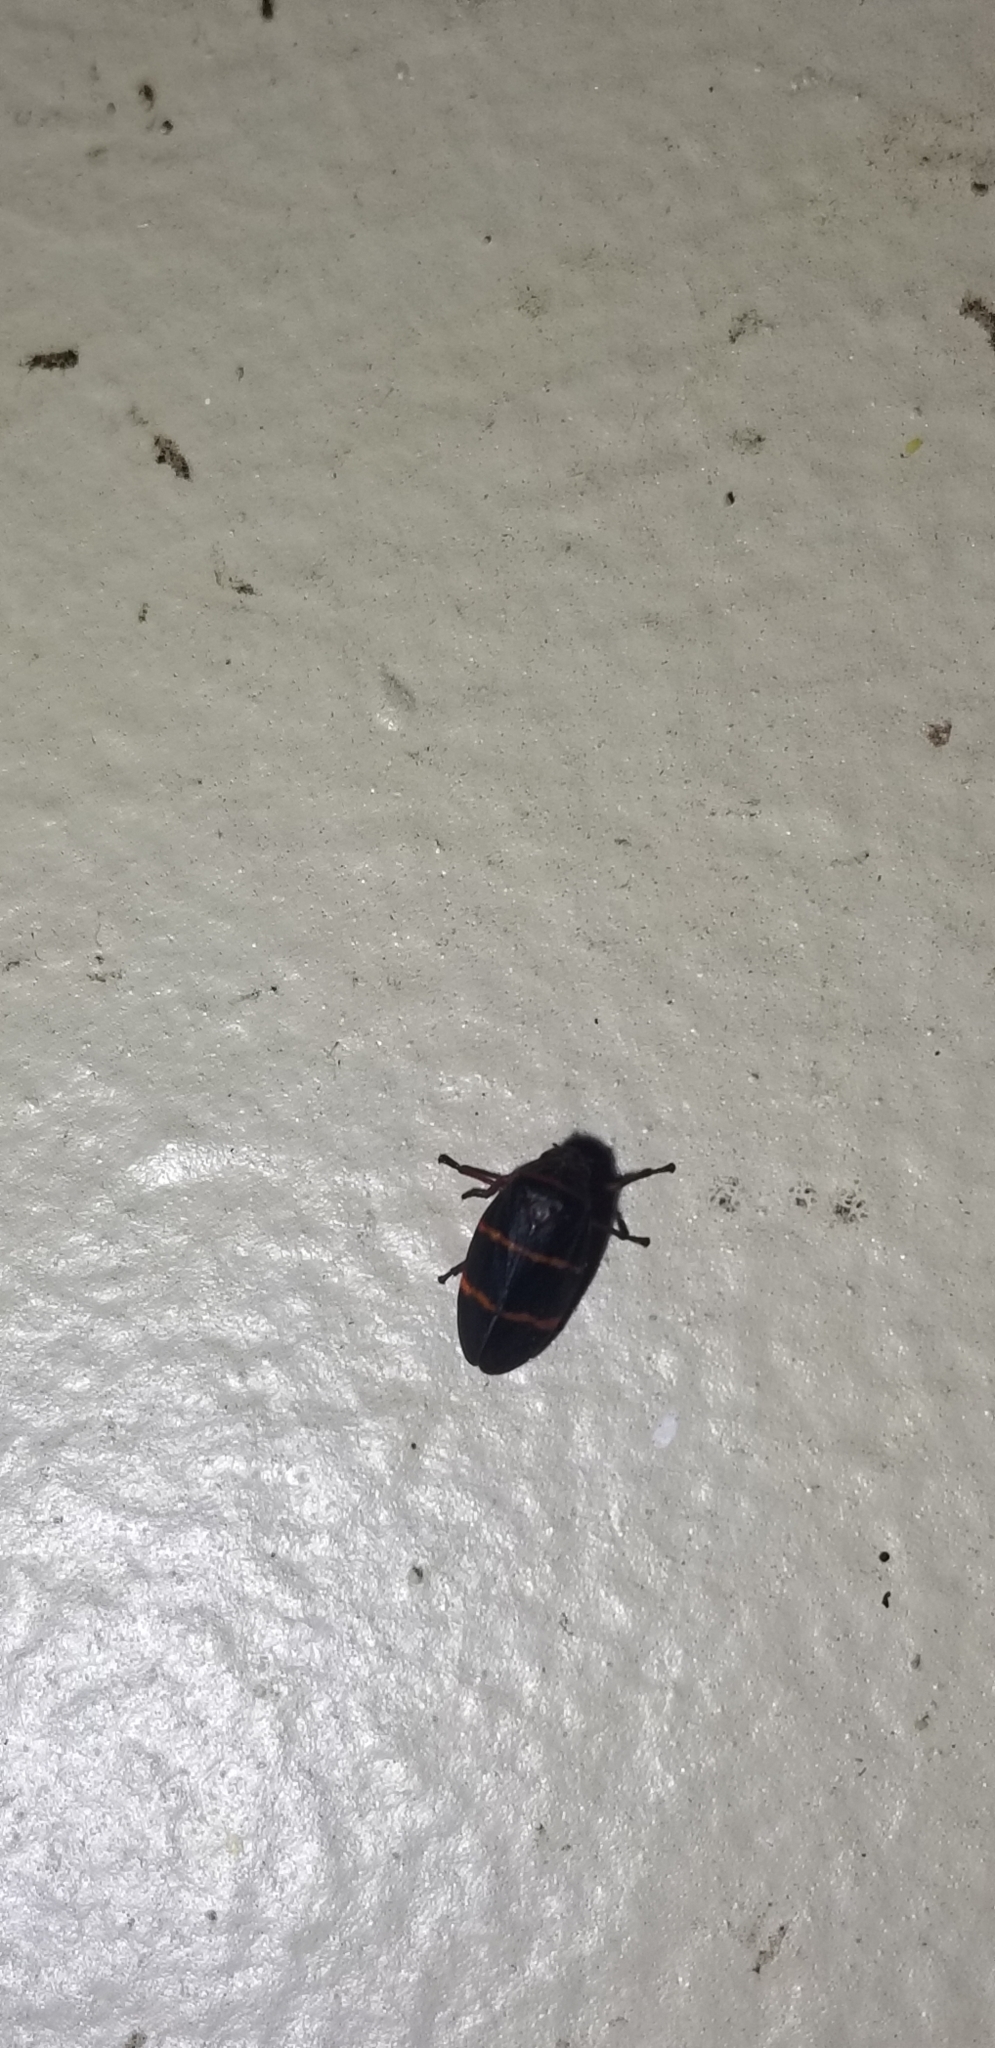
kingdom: Animalia
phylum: Arthropoda
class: Insecta
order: Hemiptera
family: Cercopidae
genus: Prosapia
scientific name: Prosapia bicincta
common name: Twolined spittlebug
